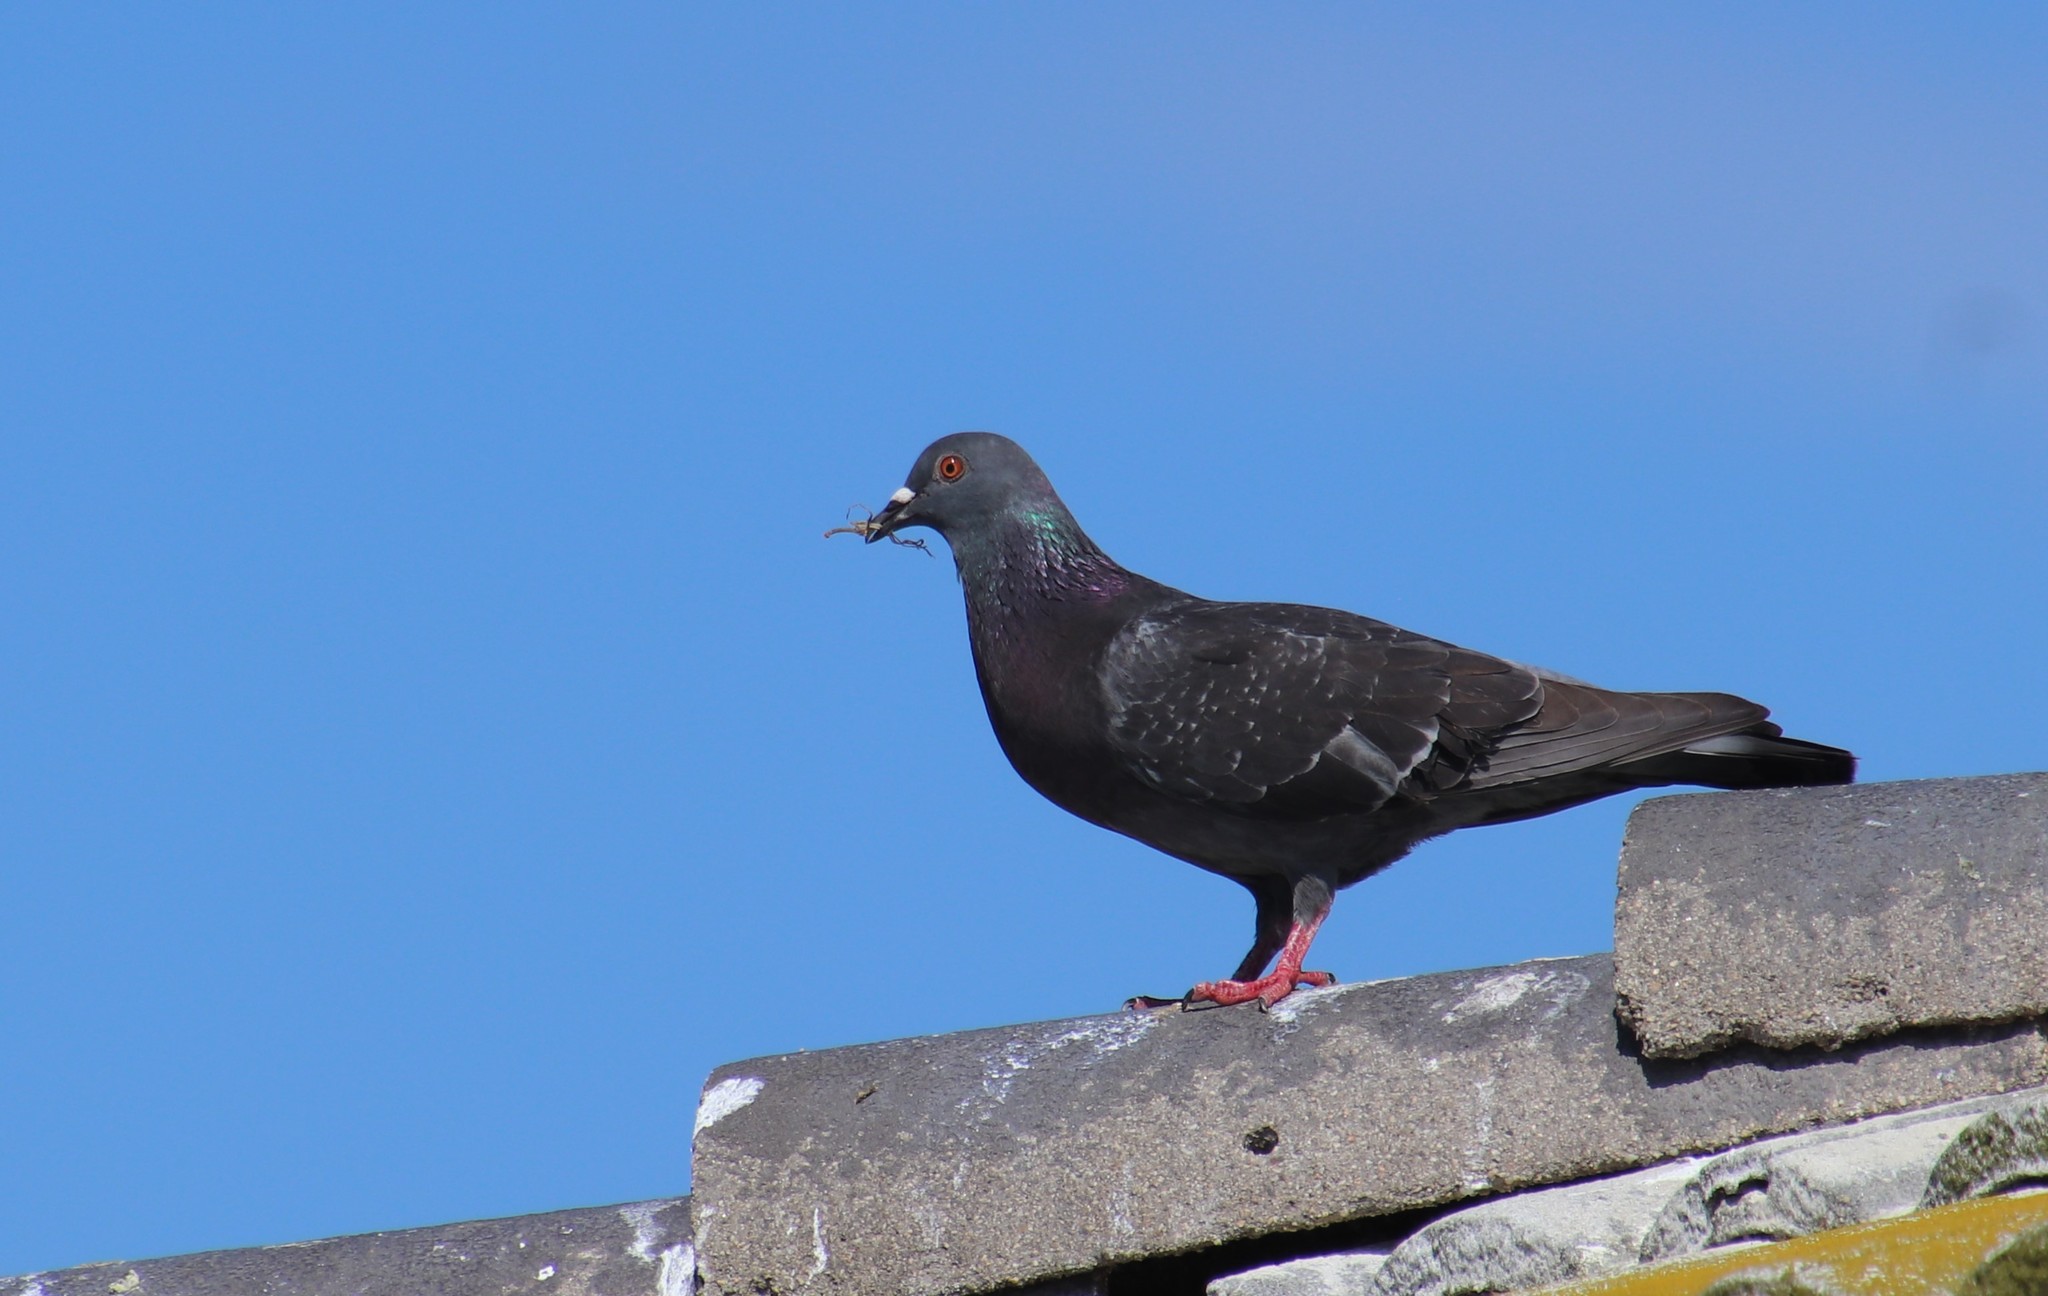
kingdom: Animalia
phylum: Chordata
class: Aves
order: Columbiformes
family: Columbidae
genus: Columba
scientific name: Columba livia
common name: Rock pigeon
